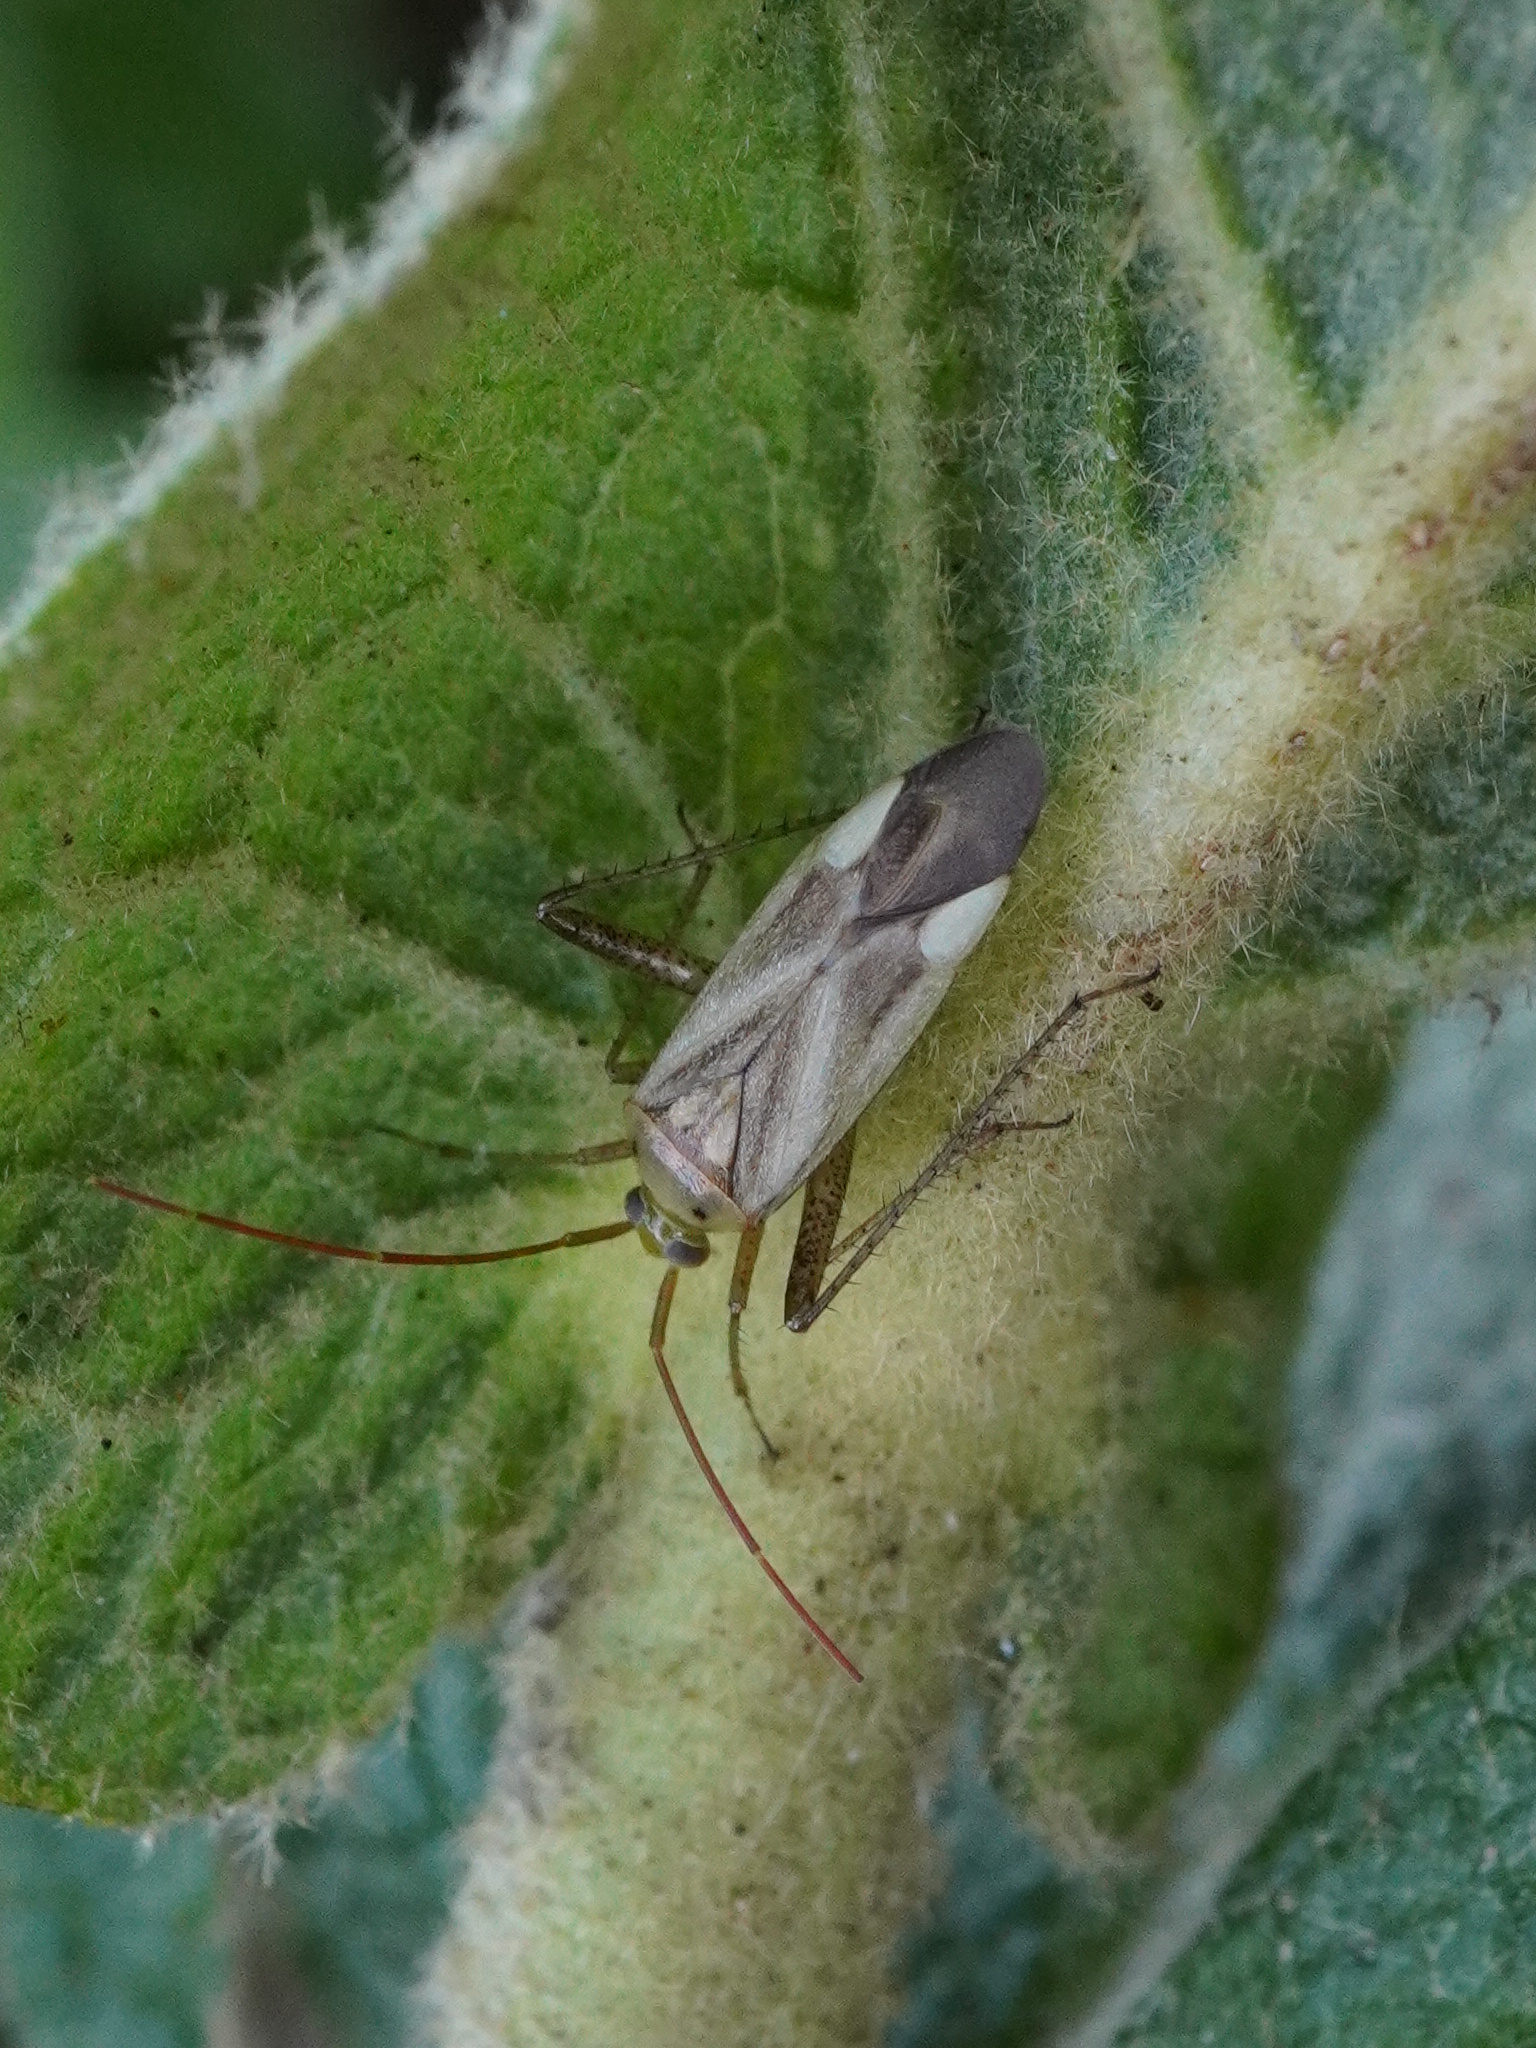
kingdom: Animalia
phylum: Arthropoda
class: Insecta
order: Hemiptera
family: Miridae
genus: Adelphocoris
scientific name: Adelphocoris lineolatus
